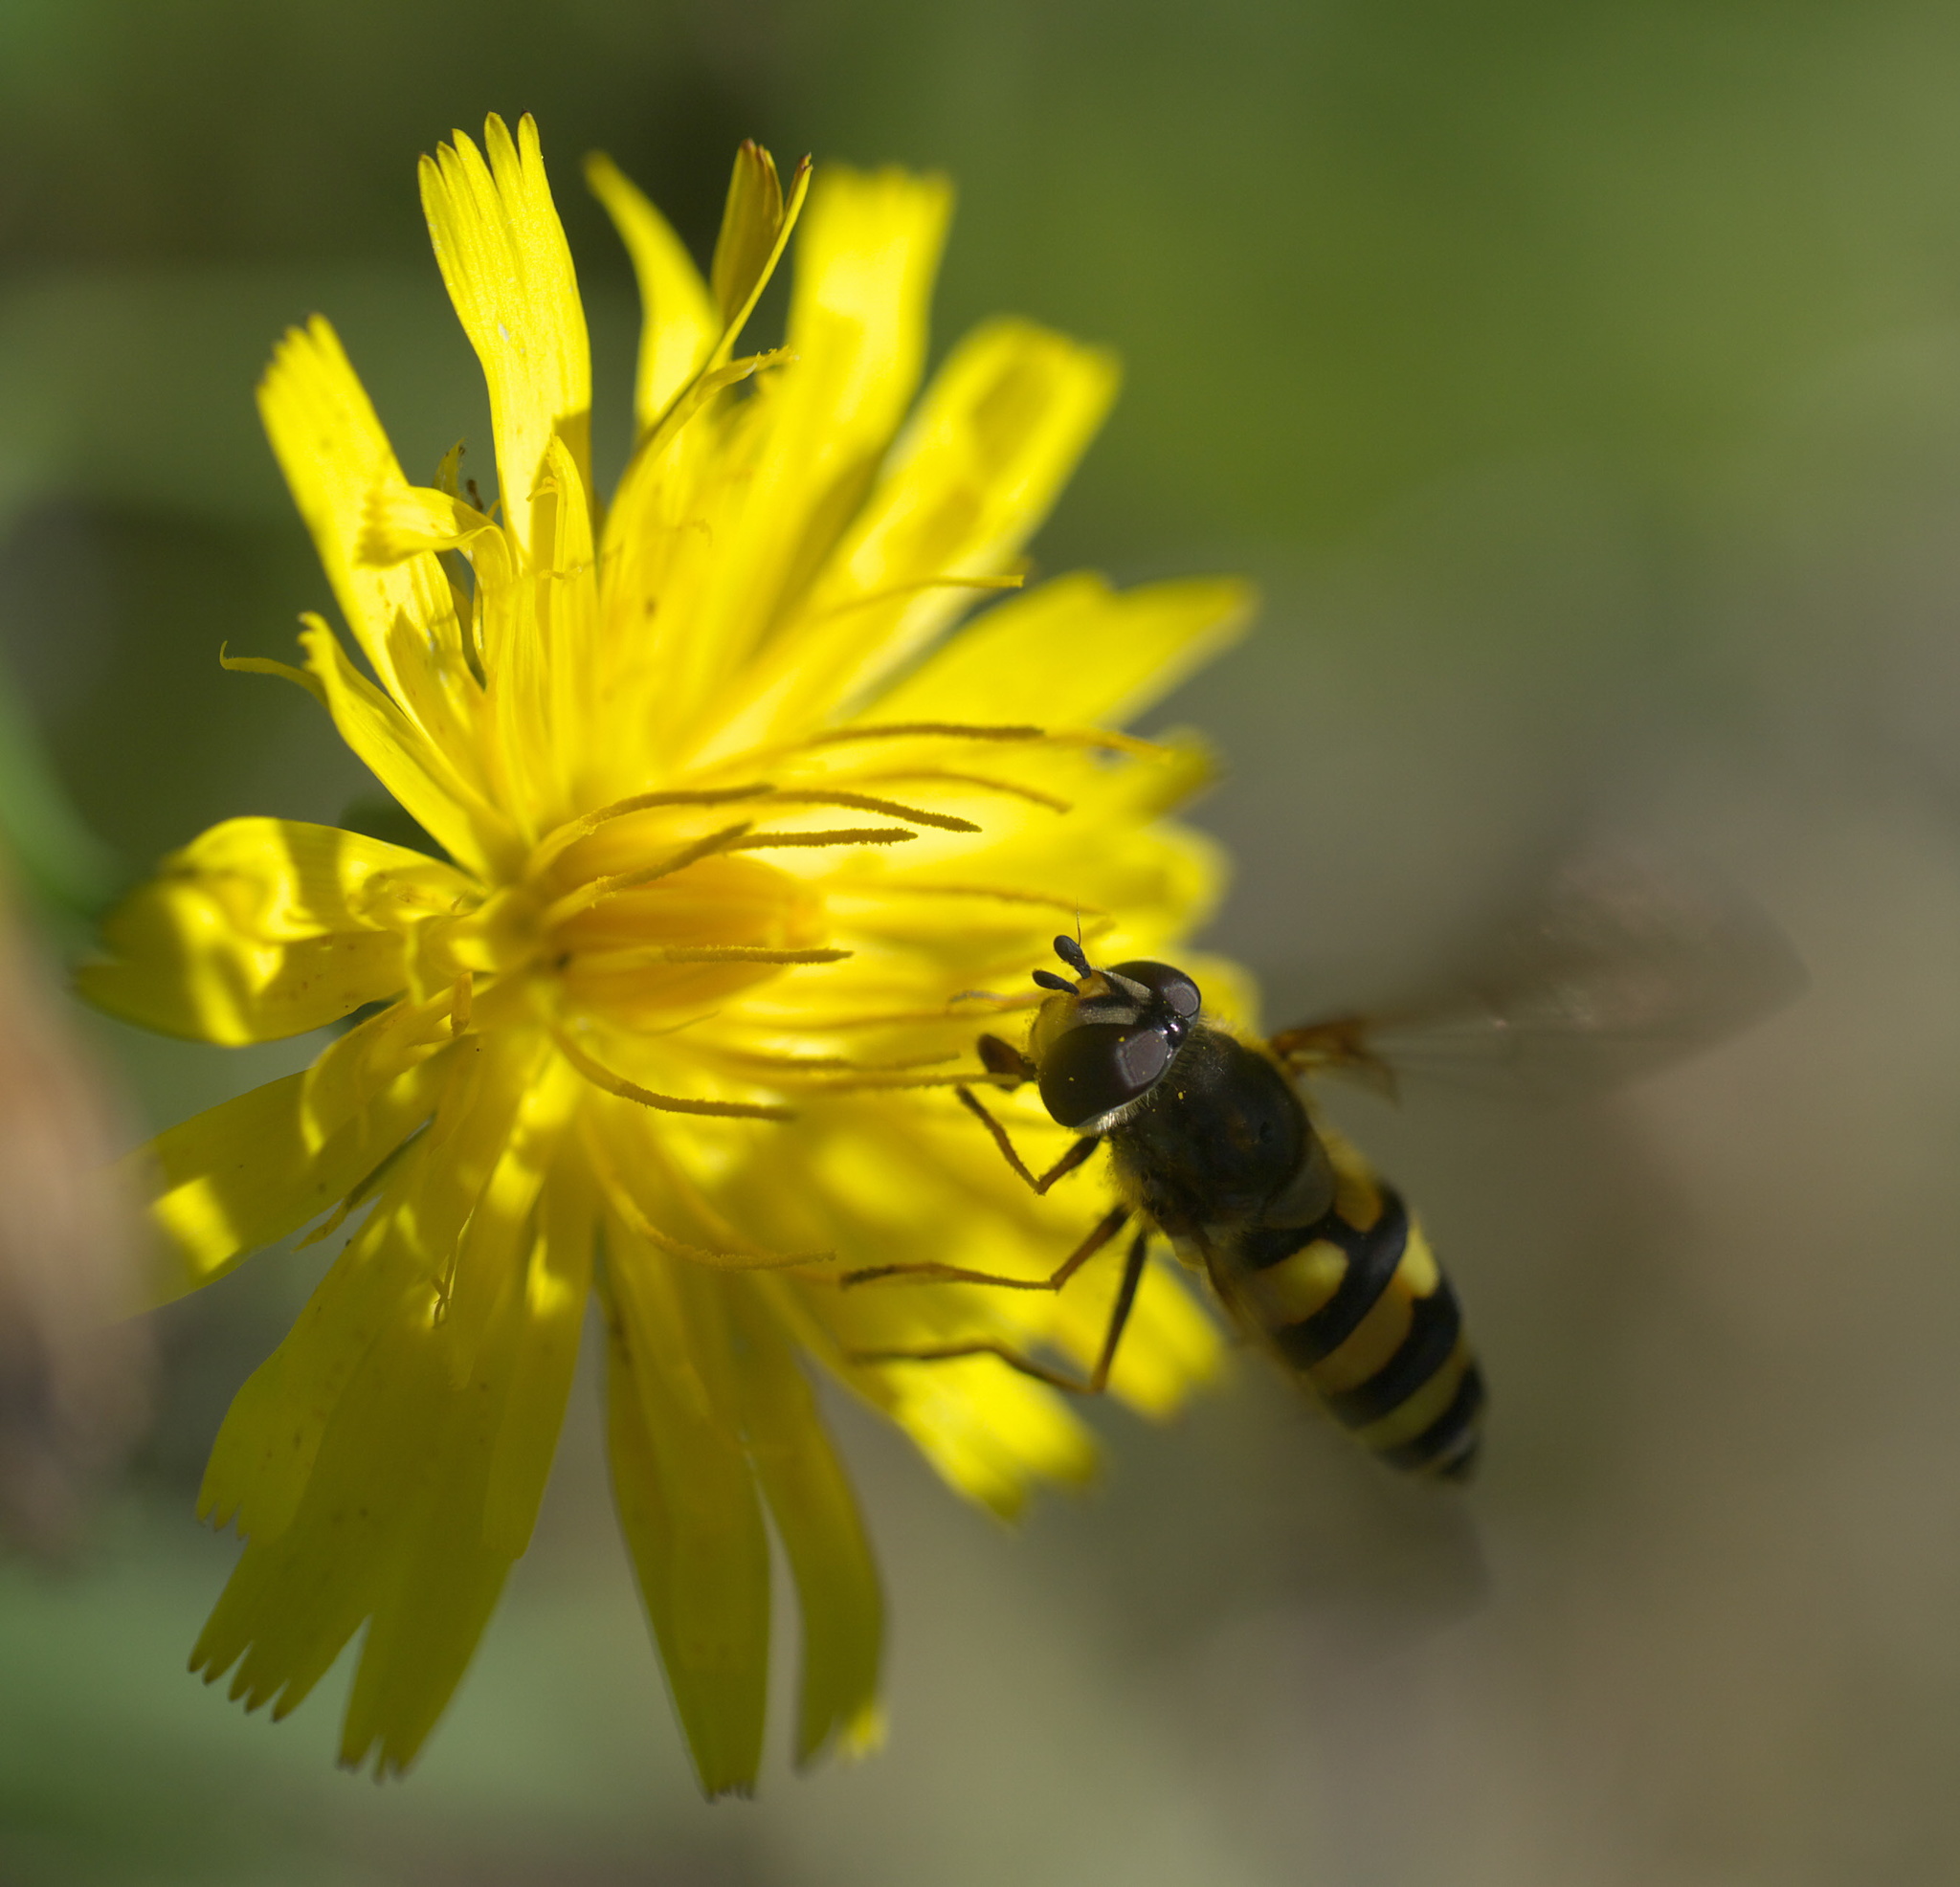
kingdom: Animalia
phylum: Arthropoda
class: Insecta
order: Diptera
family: Syrphidae
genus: Megasyrphus
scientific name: Megasyrphus laxus
